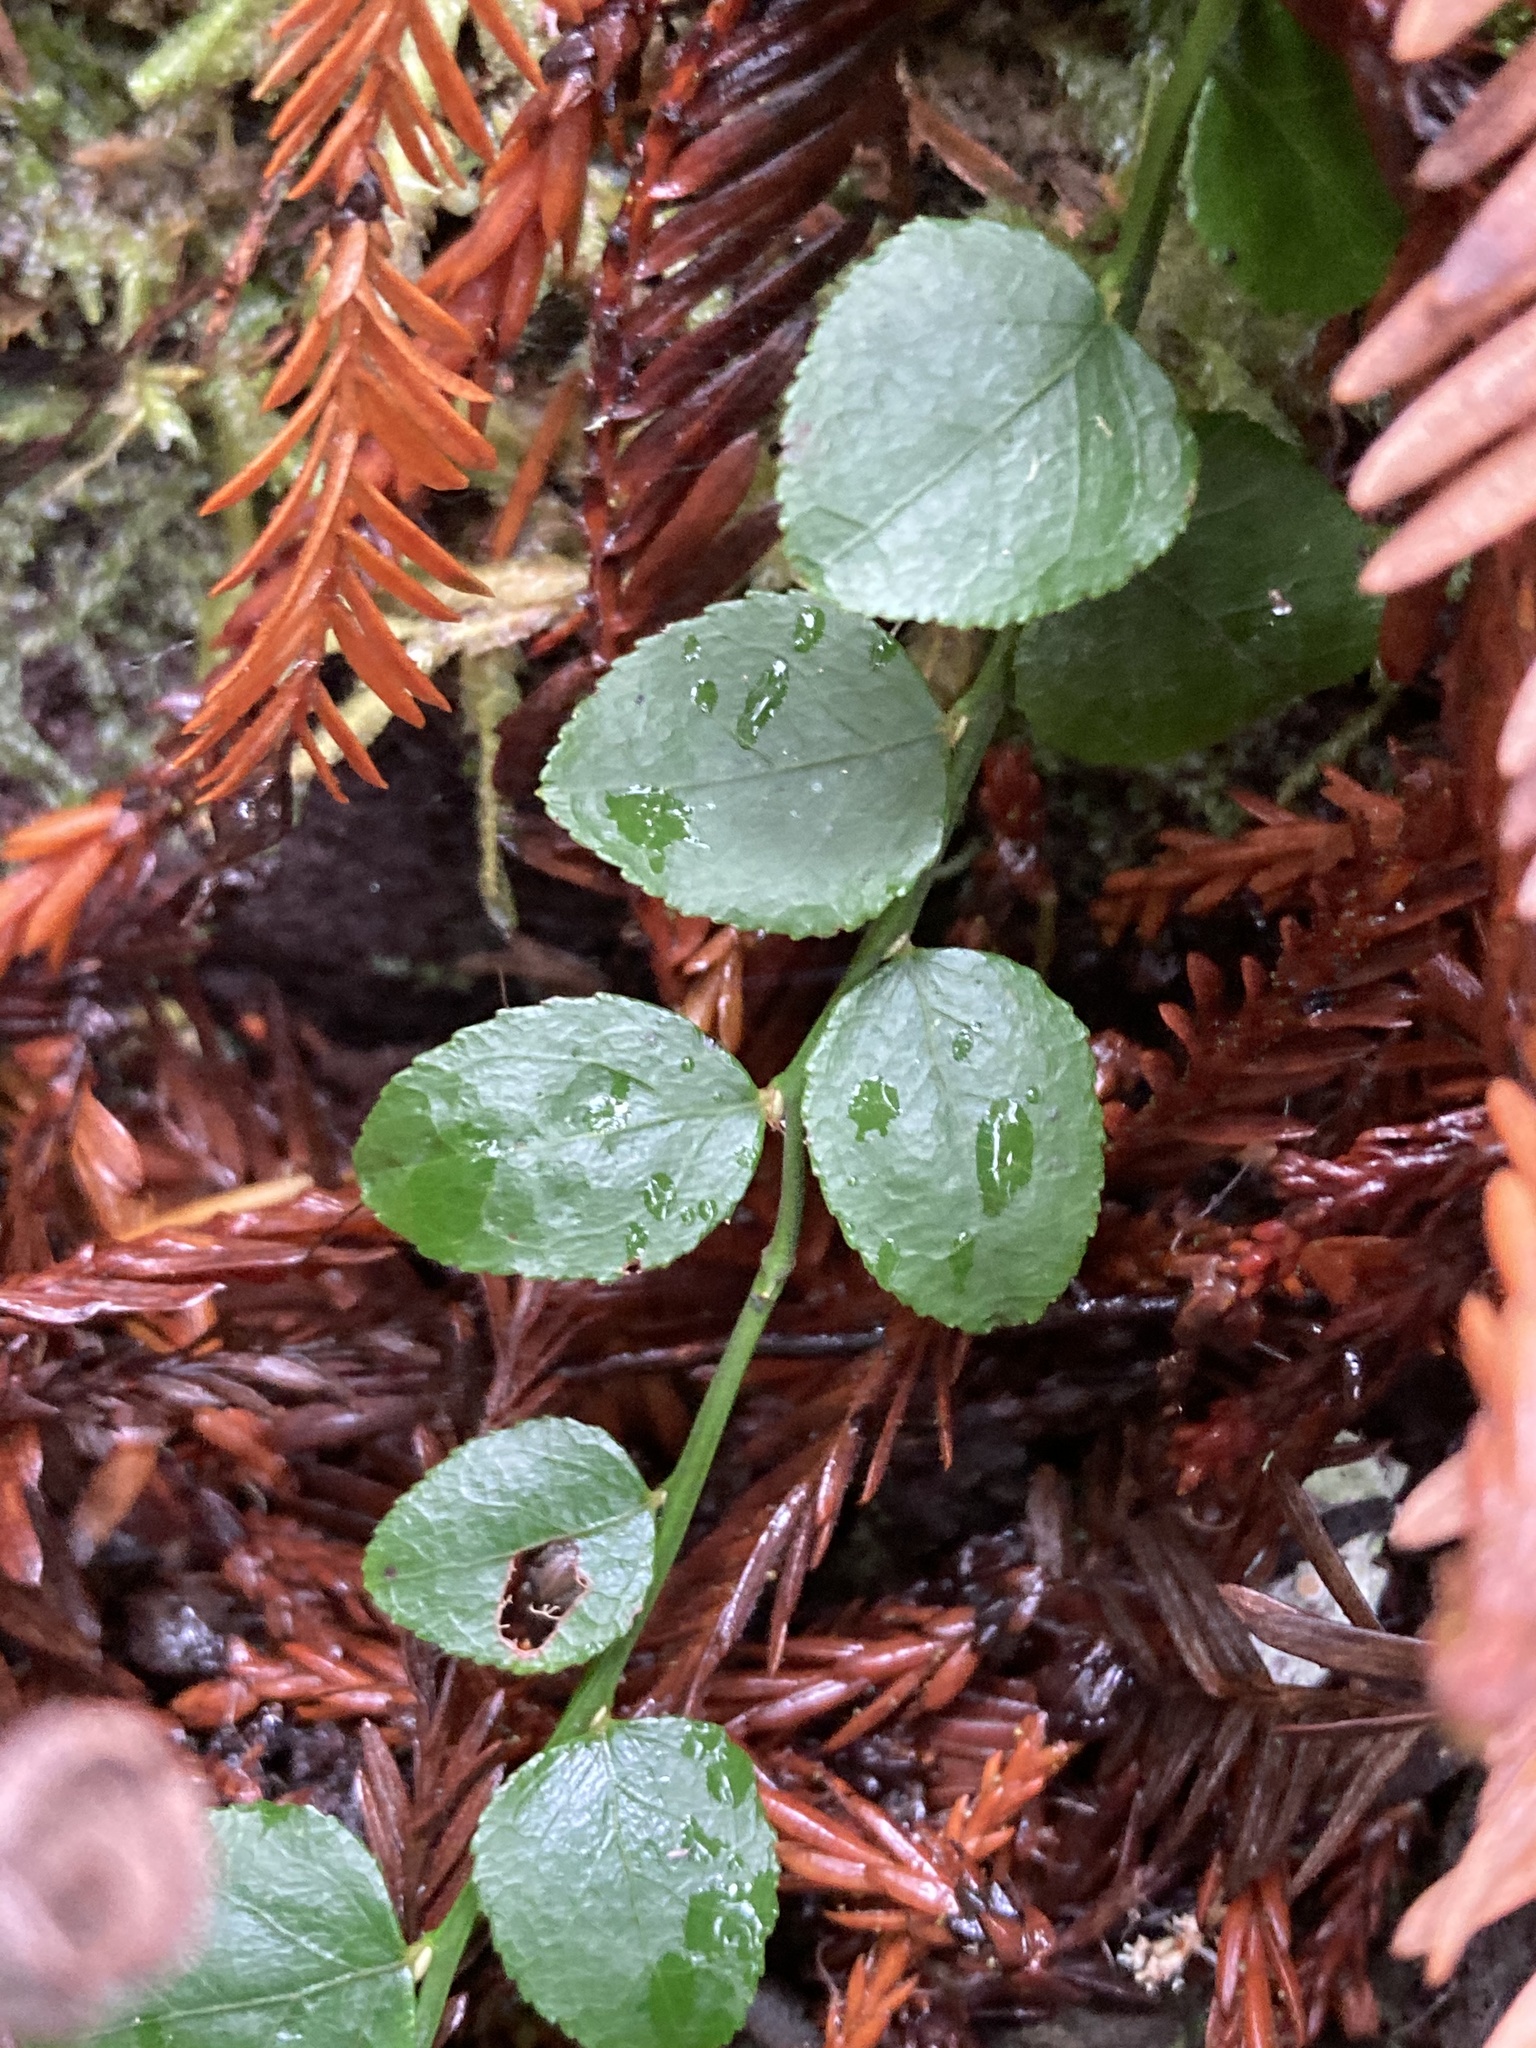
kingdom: Plantae
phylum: Tracheophyta
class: Magnoliopsida
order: Ericales
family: Ericaceae
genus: Vaccinium
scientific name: Vaccinium parvifolium
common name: Red-huckleberry
